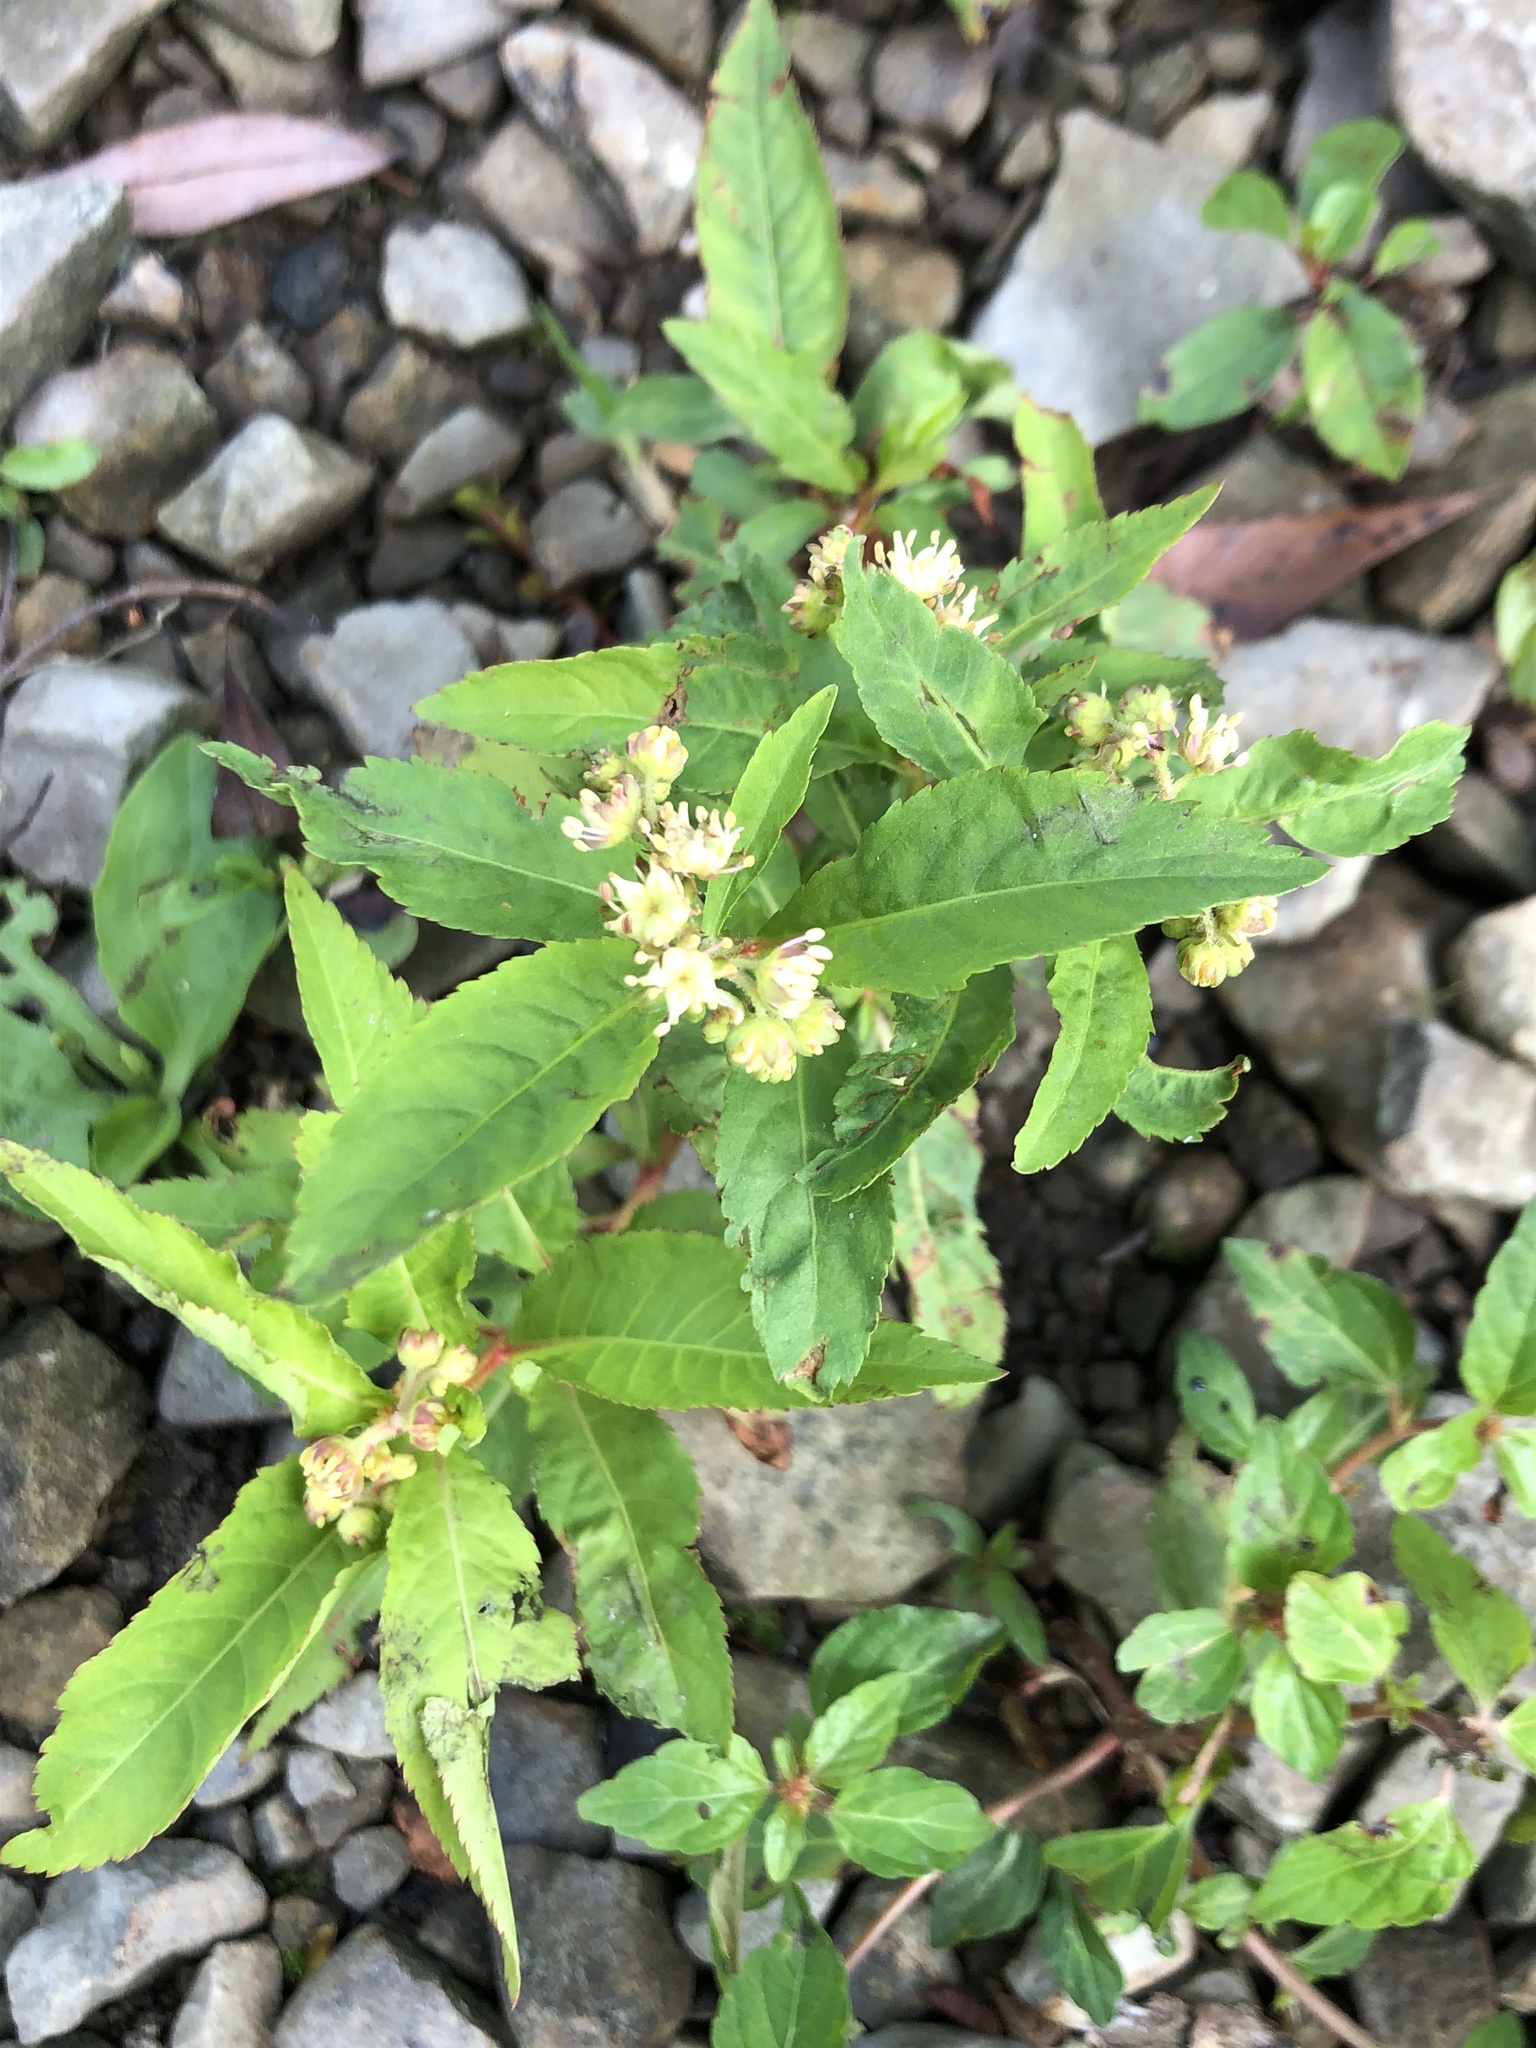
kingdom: Plantae
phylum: Tracheophyta
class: Magnoliopsida
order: Saxifragales
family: Penthoraceae
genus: Penthorum
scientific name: Penthorum sedoides
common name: Ditch stonecrop
